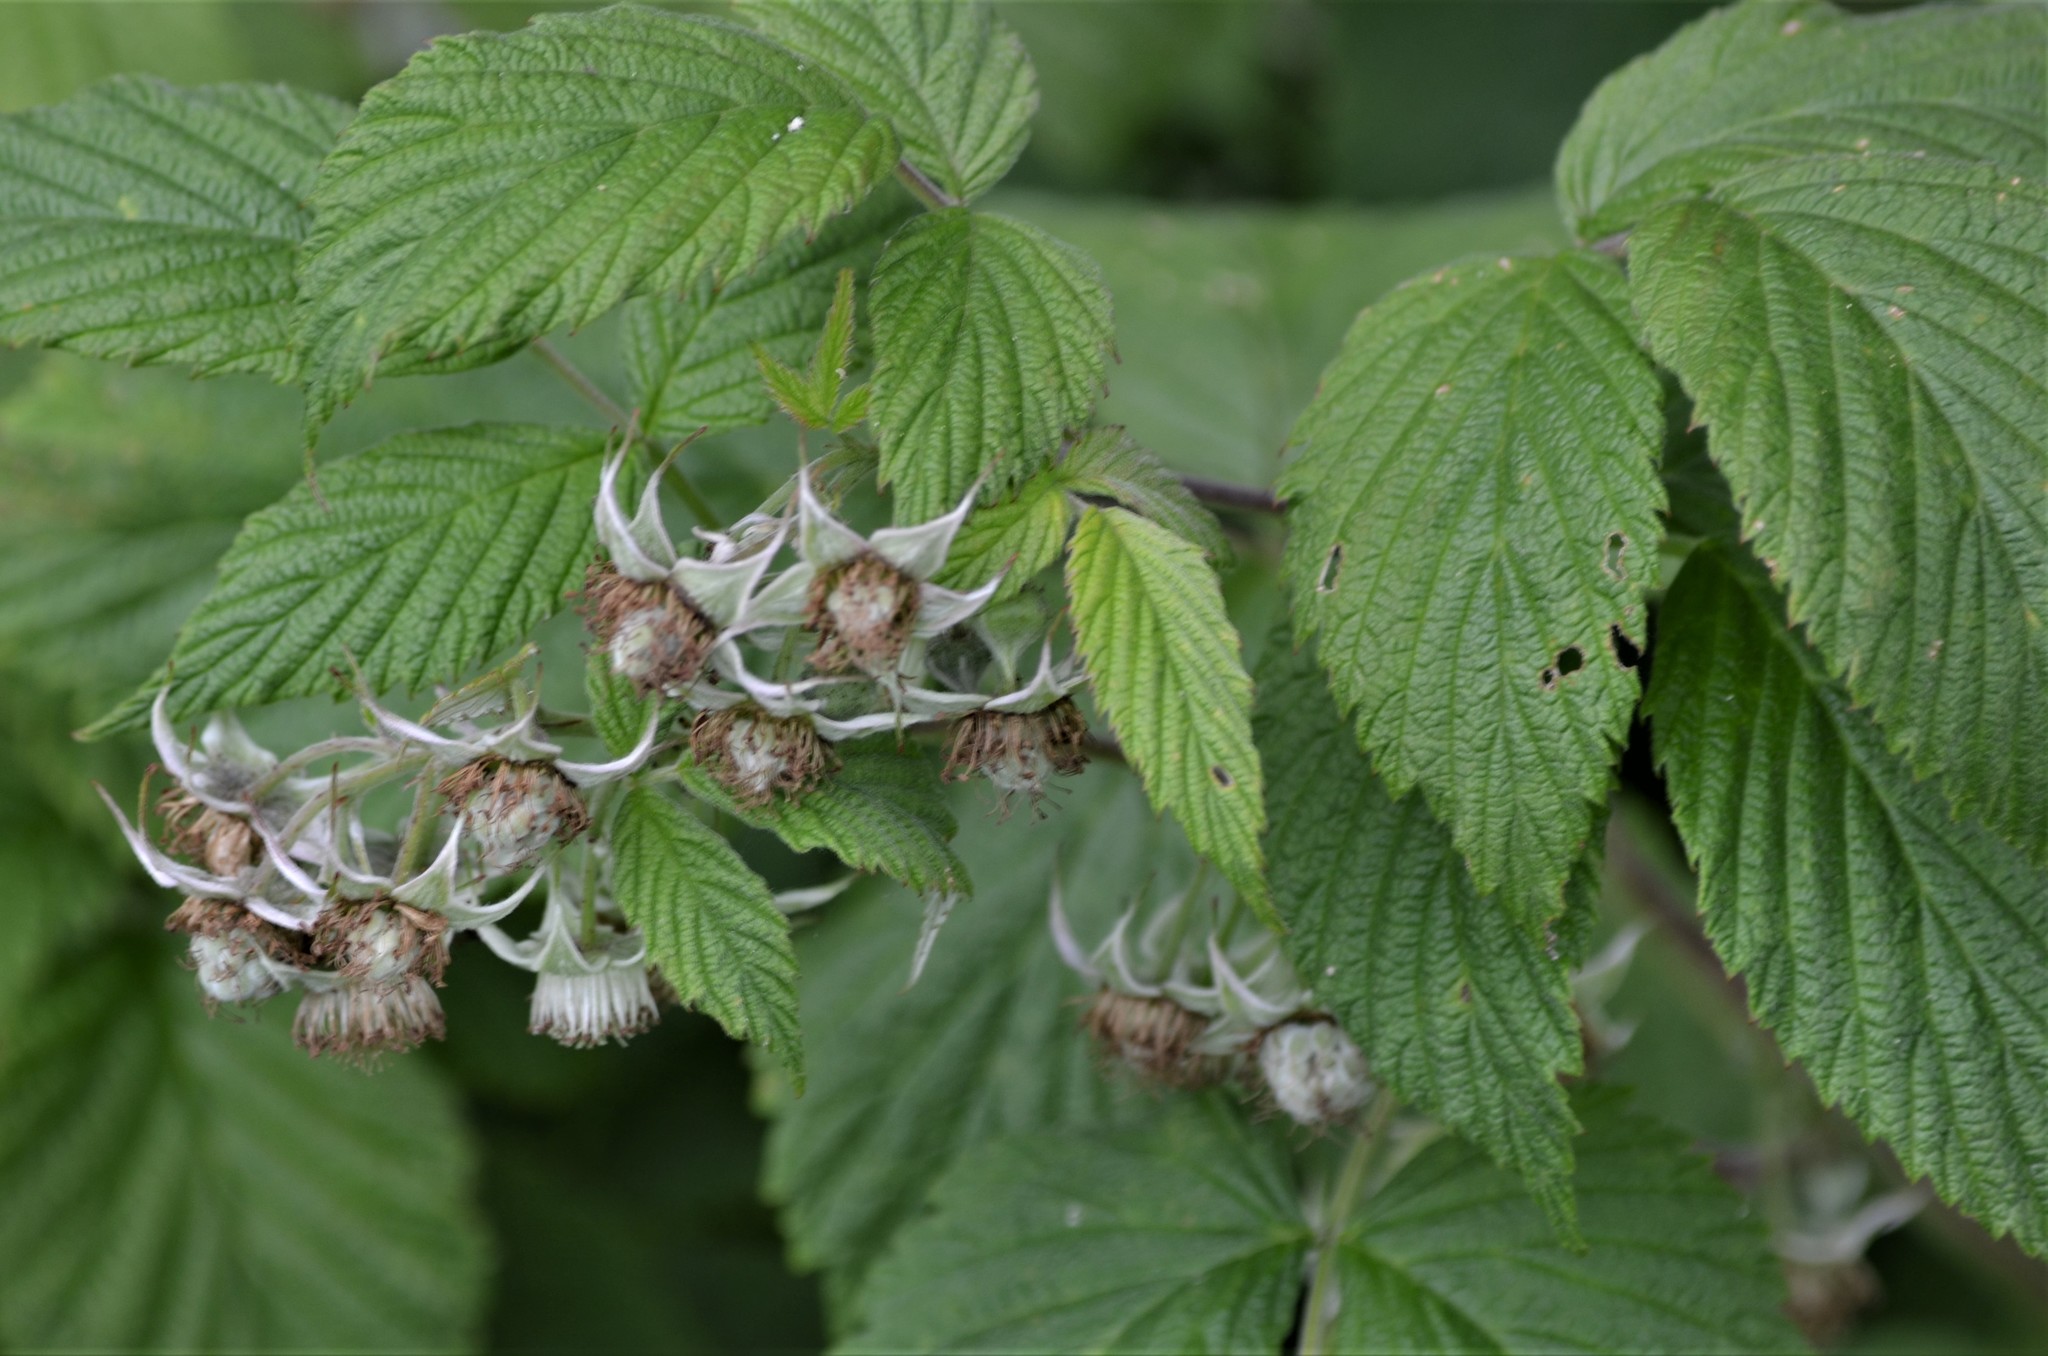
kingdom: Plantae
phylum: Tracheophyta
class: Magnoliopsida
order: Rosales
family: Rosaceae
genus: Rubus
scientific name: Rubus idaeus
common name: Raspberry
